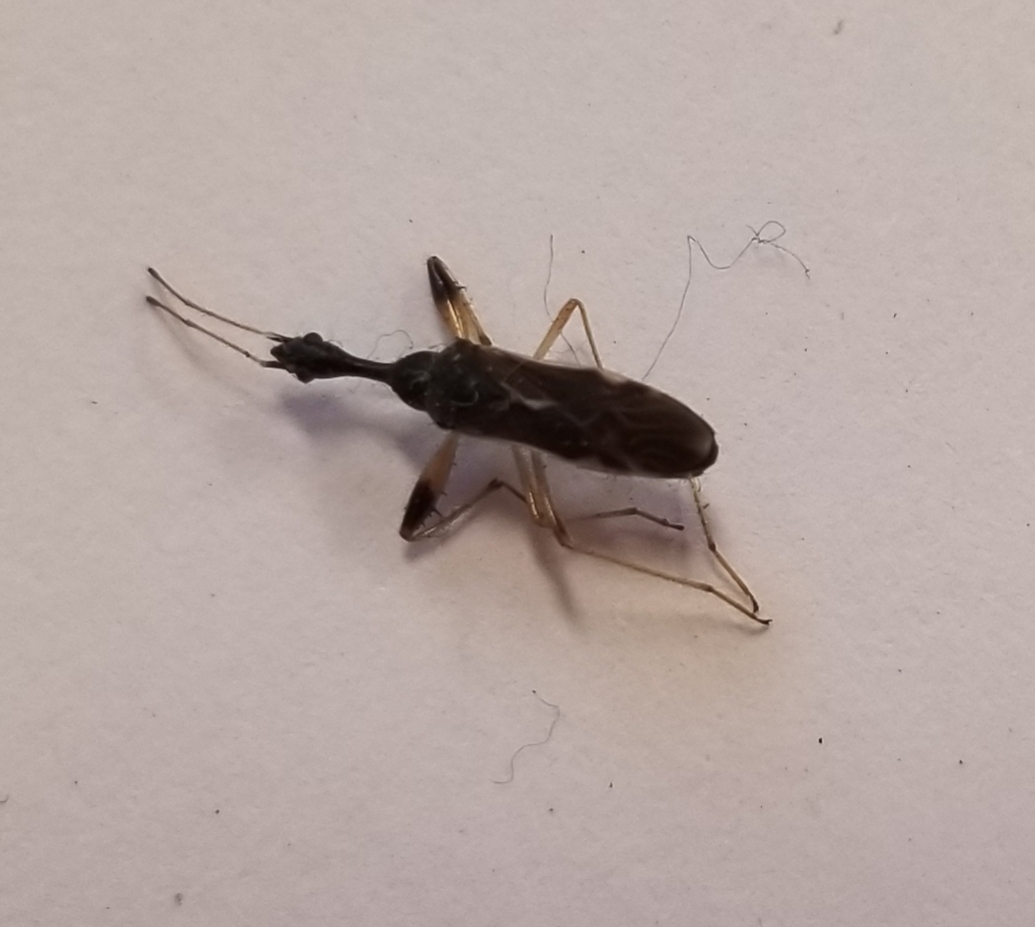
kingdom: Animalia
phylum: Arthropoda
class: Insecta
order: Hemiptera
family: Rhyparochromidae
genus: Myodocha
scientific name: Myodocha serripes
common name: Long-necked seed bug
